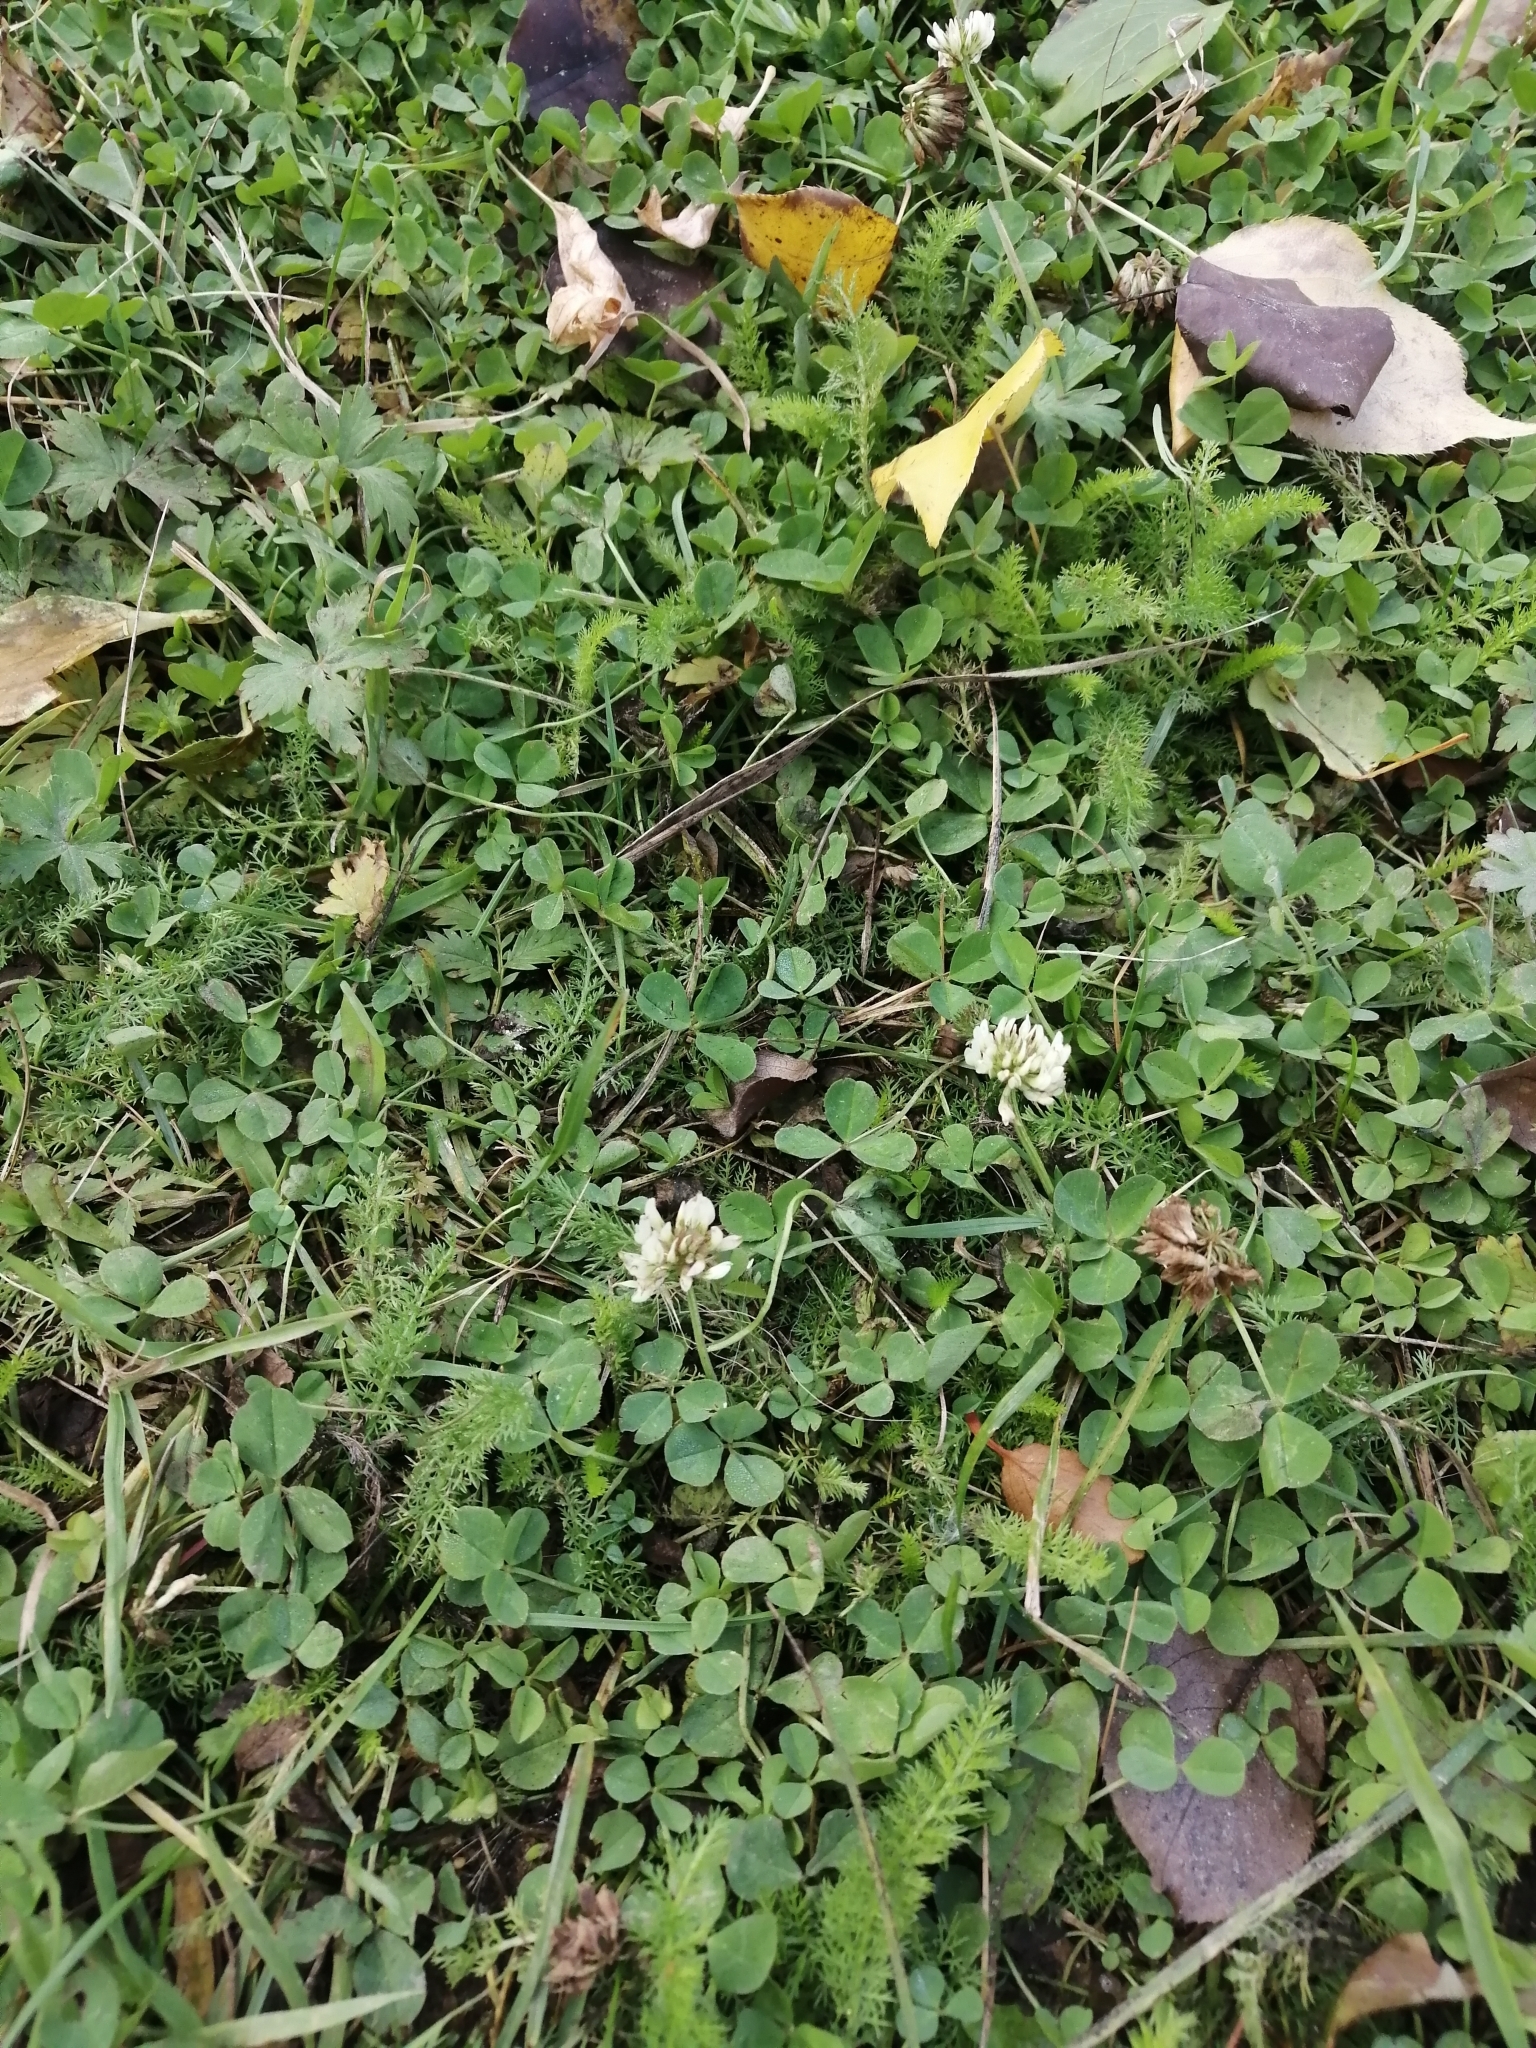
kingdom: Plantae
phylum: Tracheophyta
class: Magnoliopsida
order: Fabales
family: Fabaceae
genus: Trifolium
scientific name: Trifolium repens
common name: White clover
